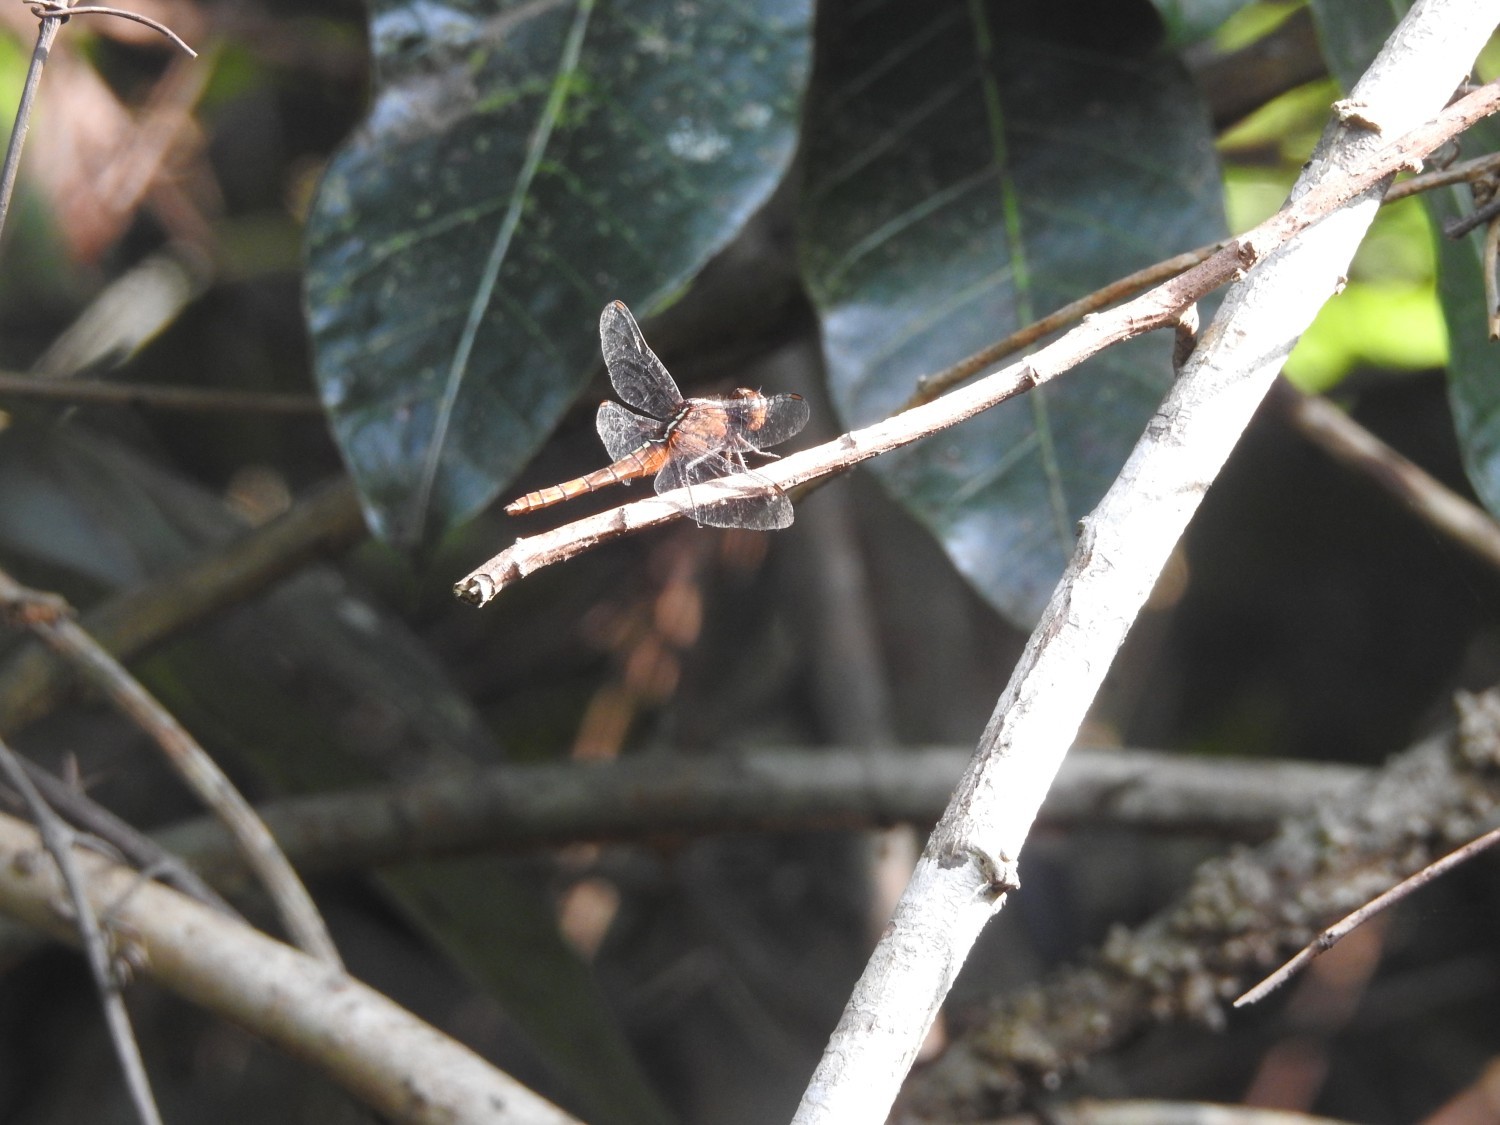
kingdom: Animalia
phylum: Arthropoda
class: Insecta
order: Odonata
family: Libellulidae
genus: Rhodothemis
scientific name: Rhodothemis rufa
